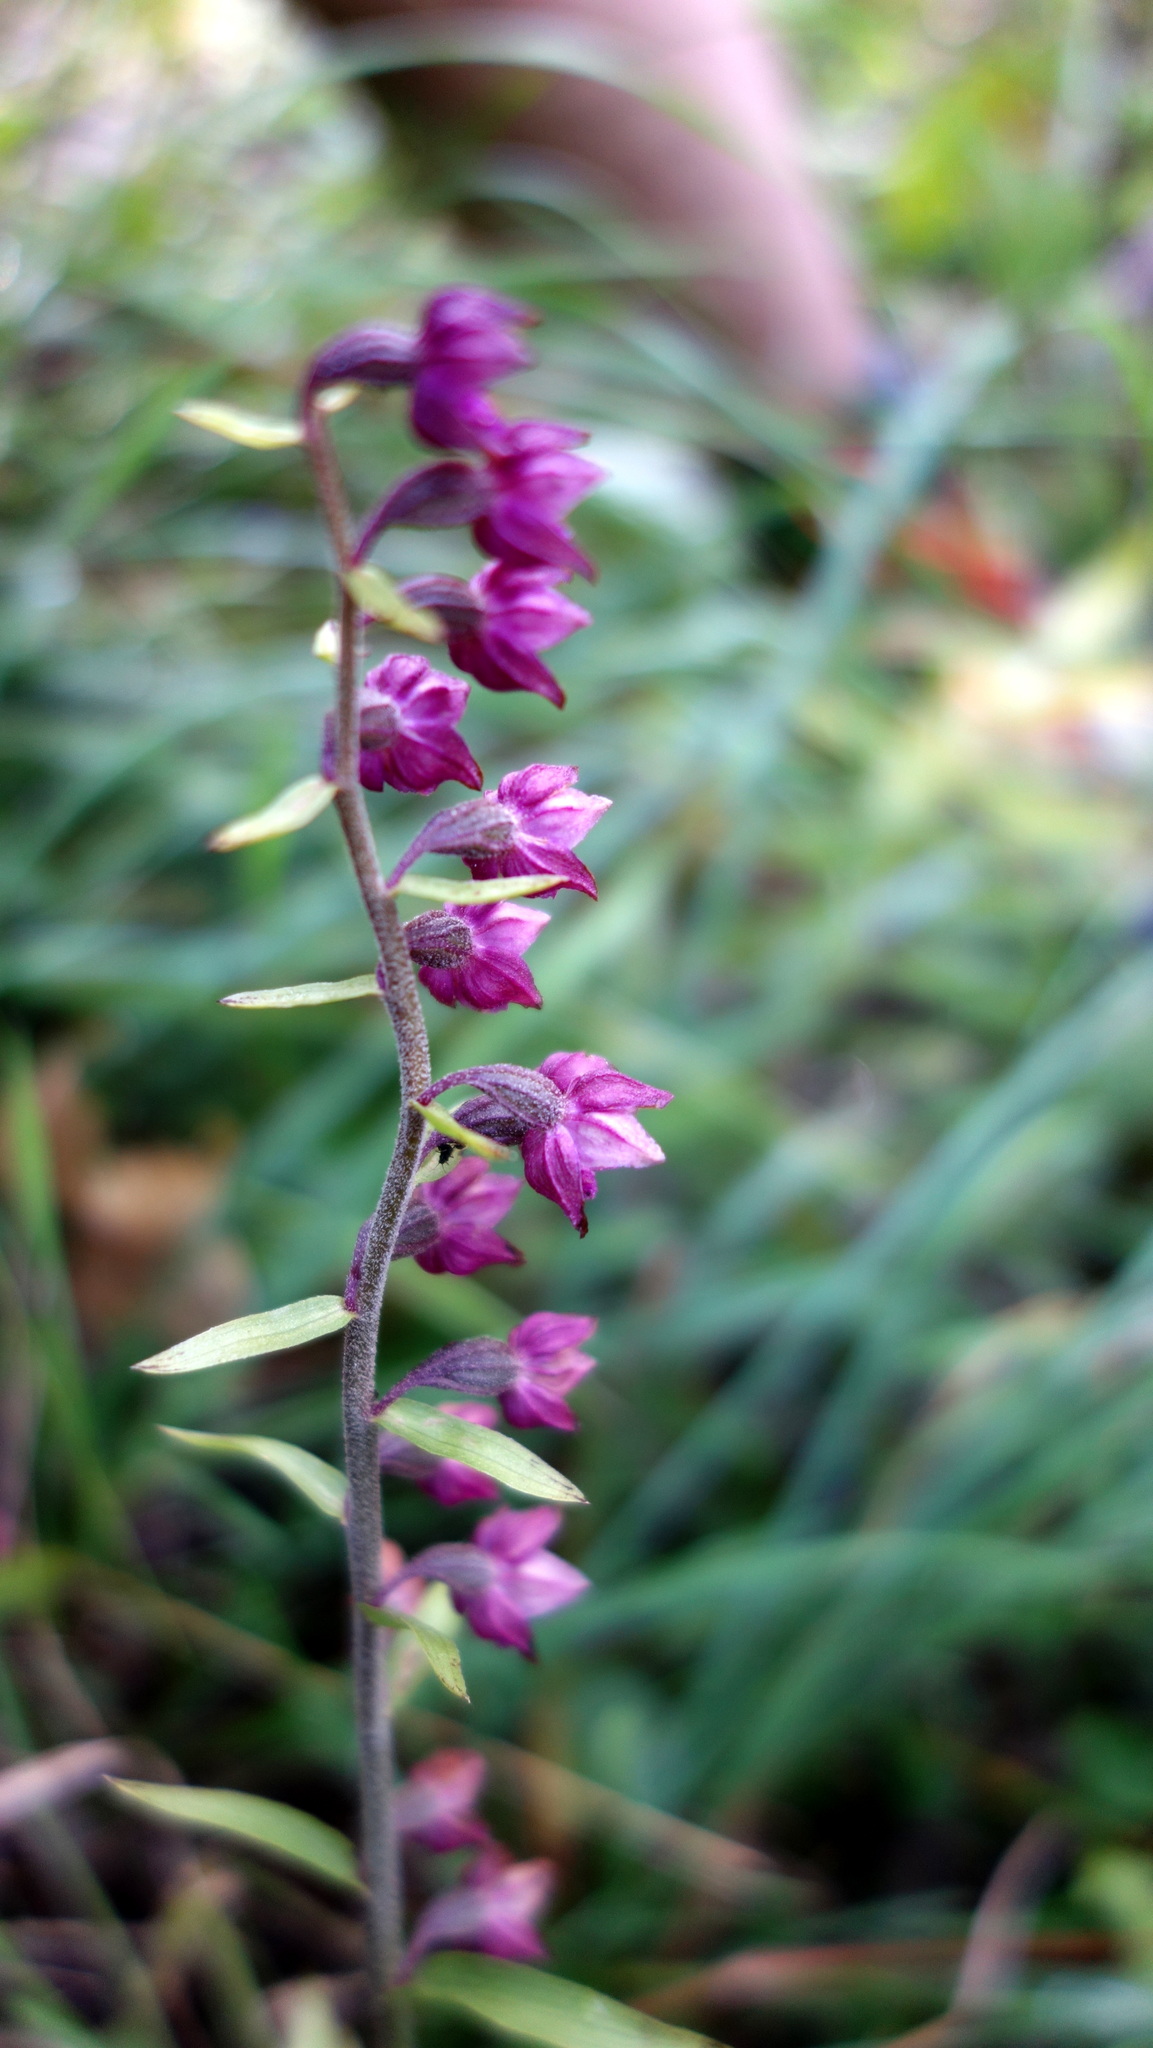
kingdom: Plantae
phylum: Tracheophyta
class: Liliopsida
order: Asparagales
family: Orchidaceae
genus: Epipactis
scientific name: Epipactis atrorubens
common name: Dark-red helleborine
